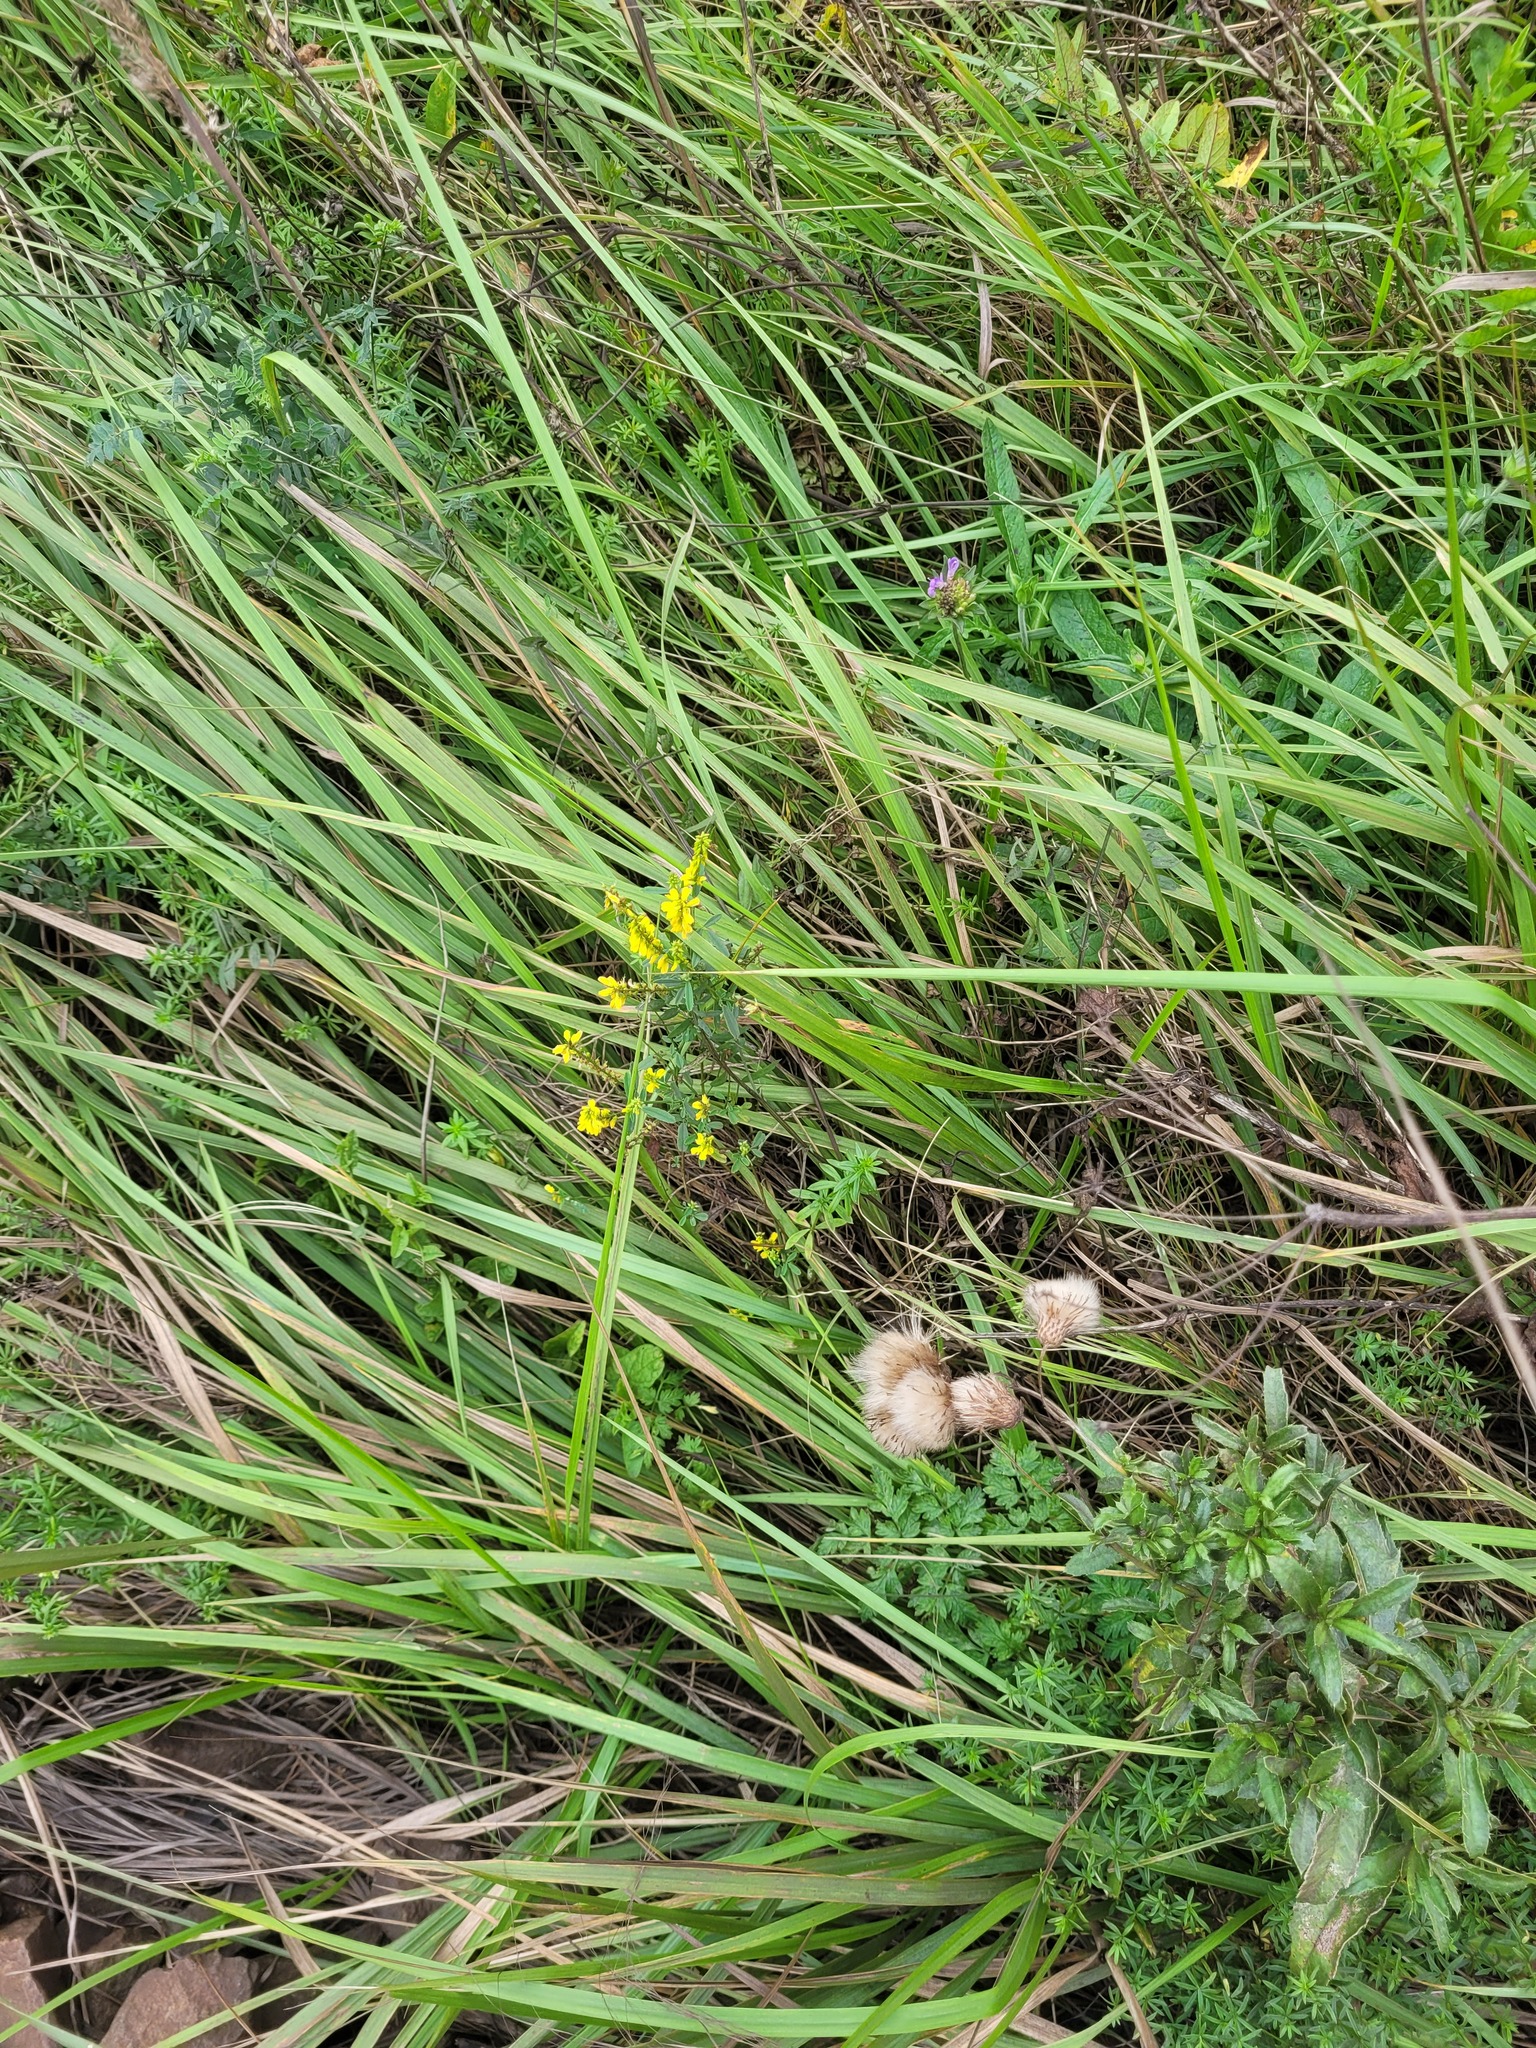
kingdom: Plantae
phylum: Tracheophyta
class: Magnoliopsida
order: Fabales
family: Fabaceae
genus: Melilotus
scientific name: Melilotus officinalis
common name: Sweetclover
